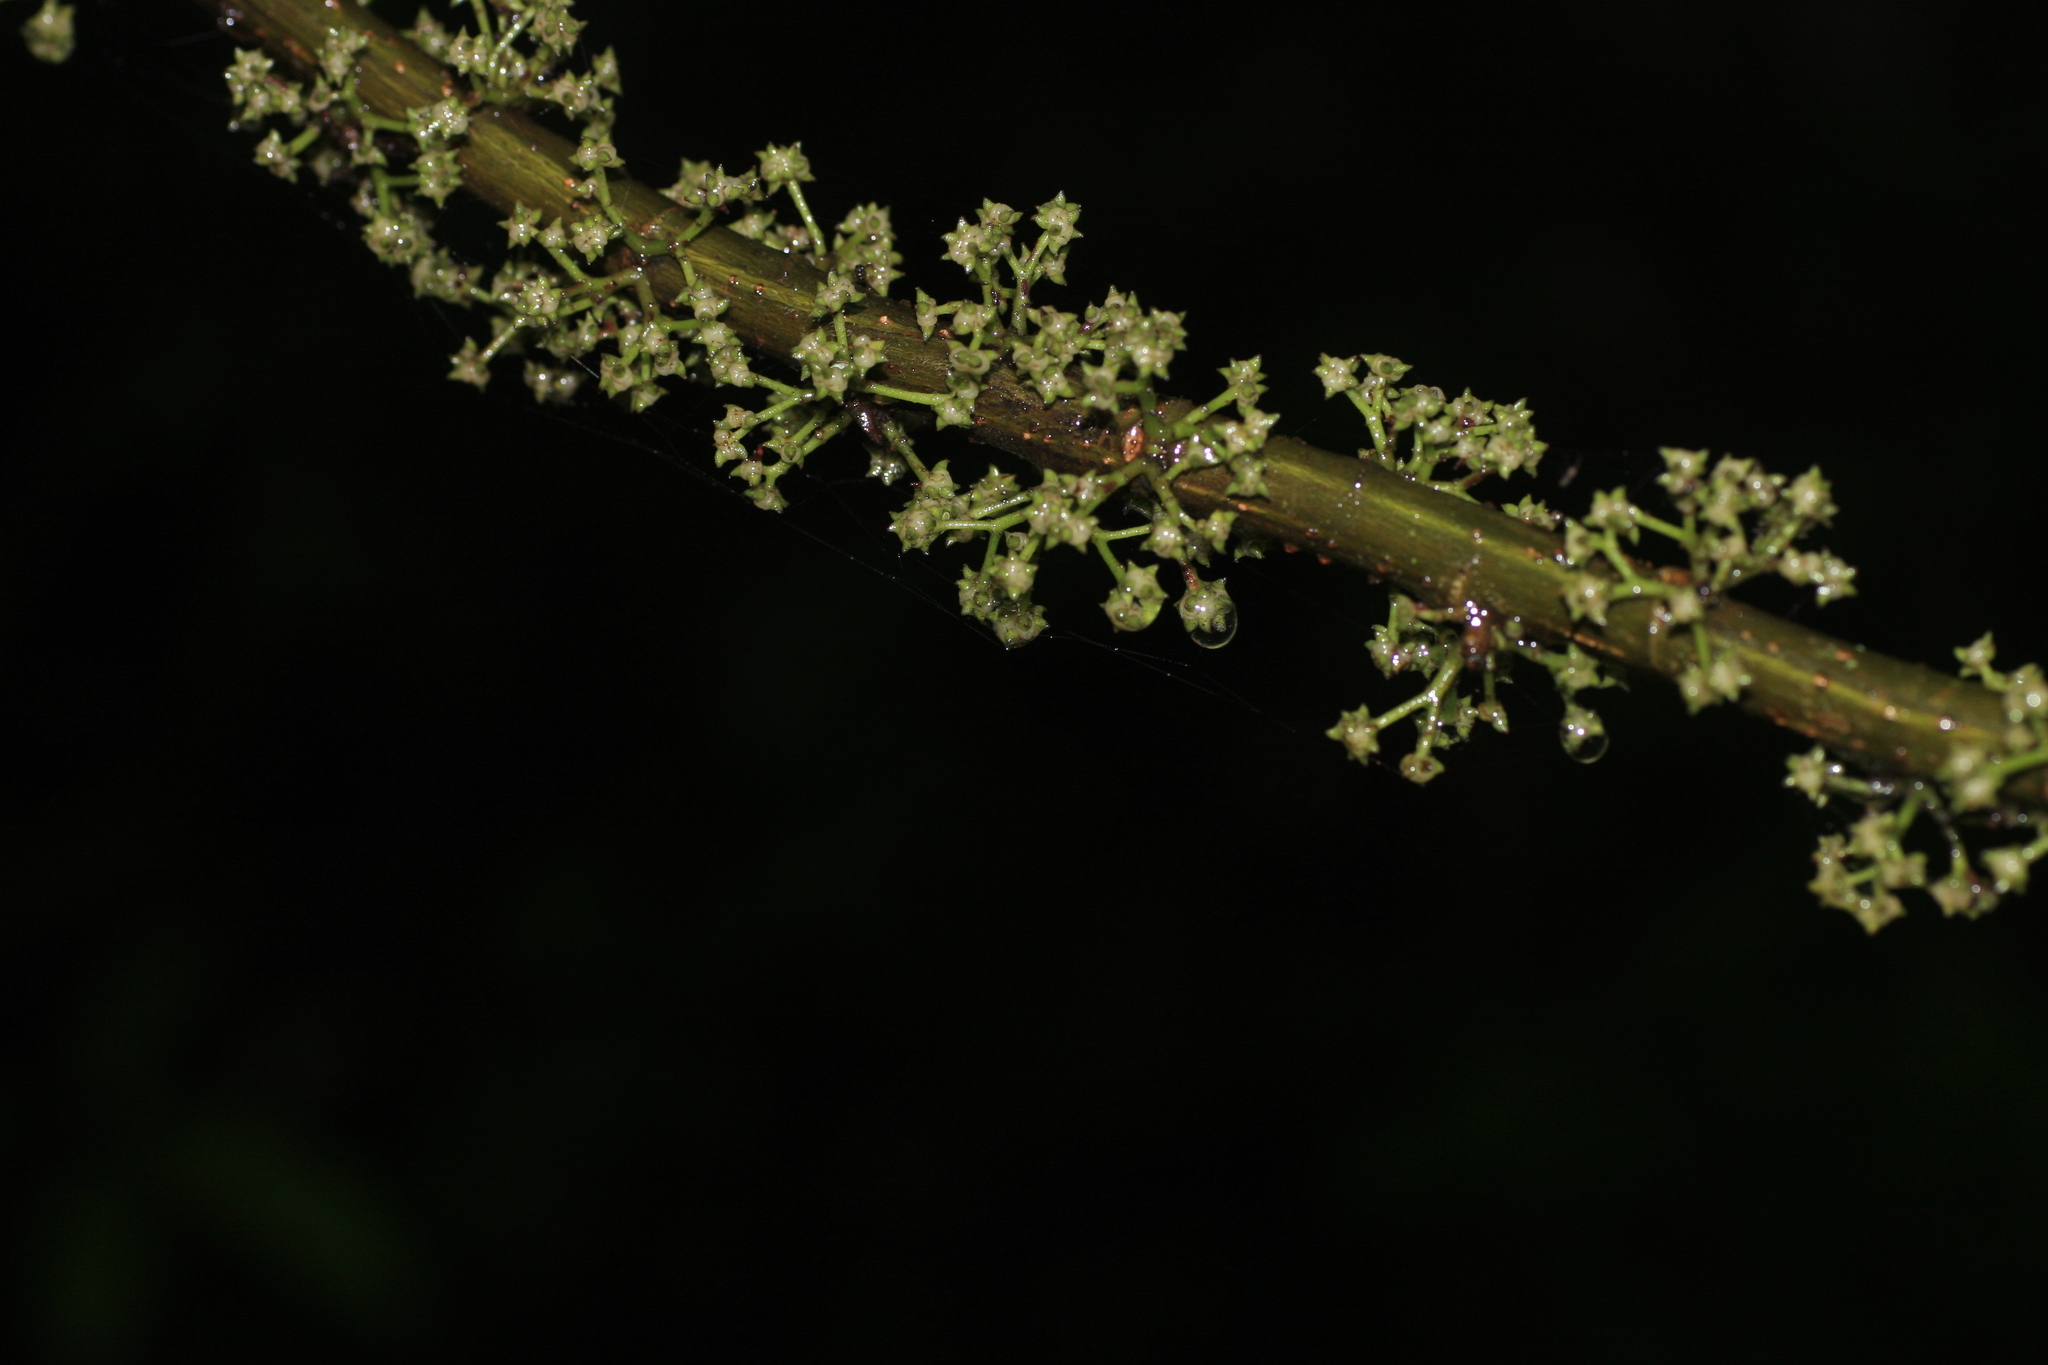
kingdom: Plantae
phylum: Tracheophyta
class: Magnoliopsida
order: Rosales
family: Urticaceae
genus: Oreocnide
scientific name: Oreocnide integrifolia
